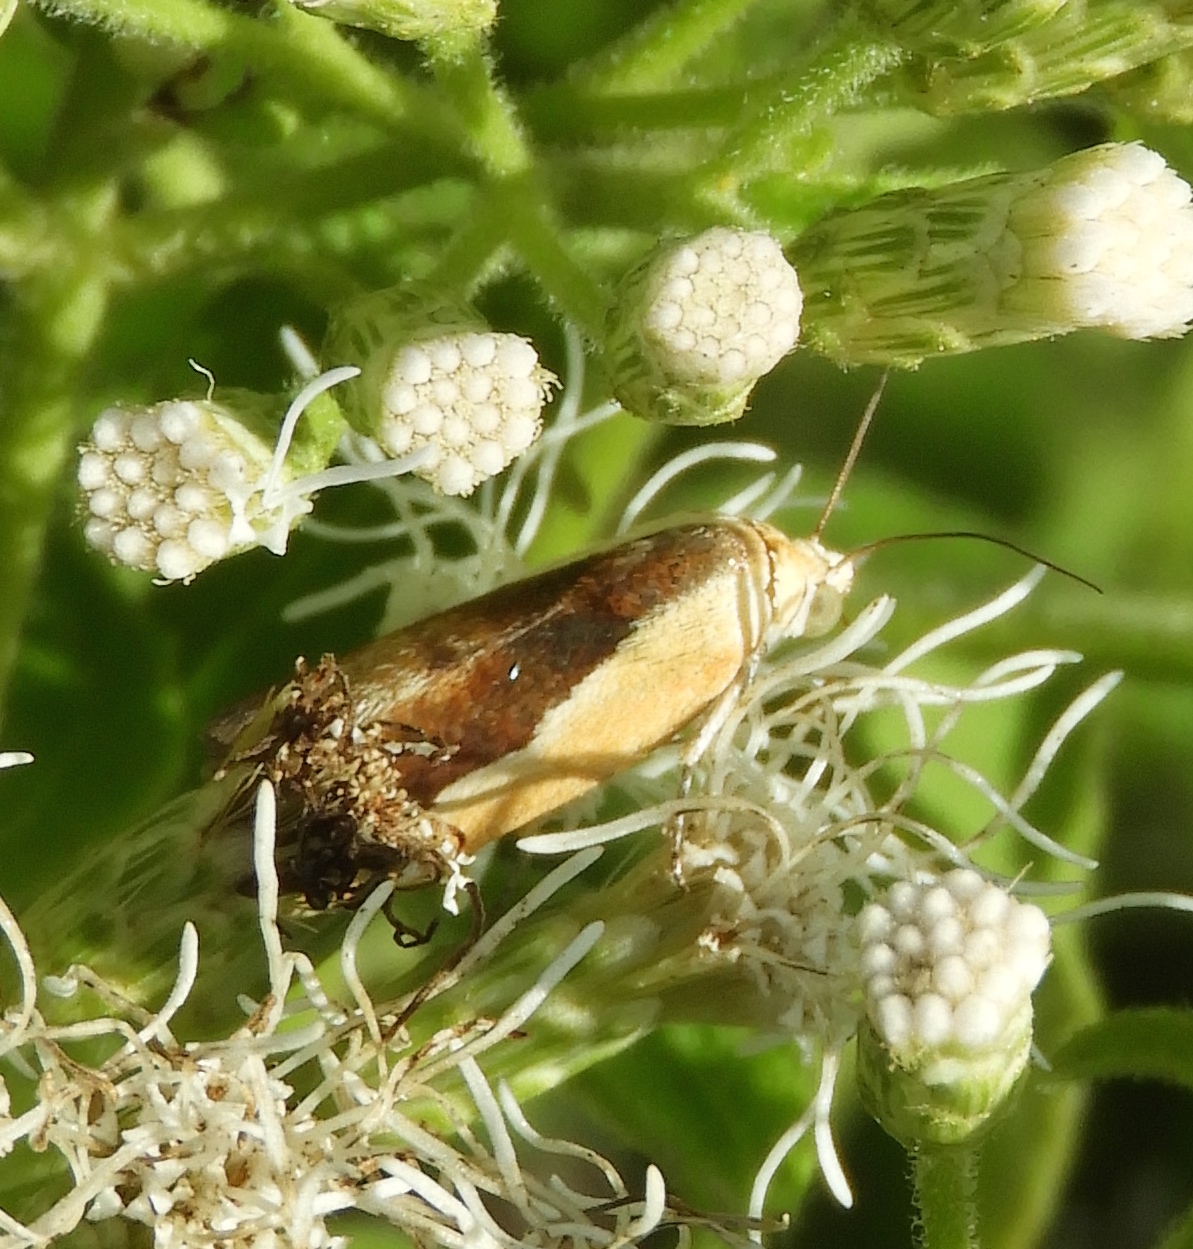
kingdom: Animalia
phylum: Arthropoda
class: Insecta
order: Lepidoptera
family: Noctuidae
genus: Acontia
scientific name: Acontia exigua
